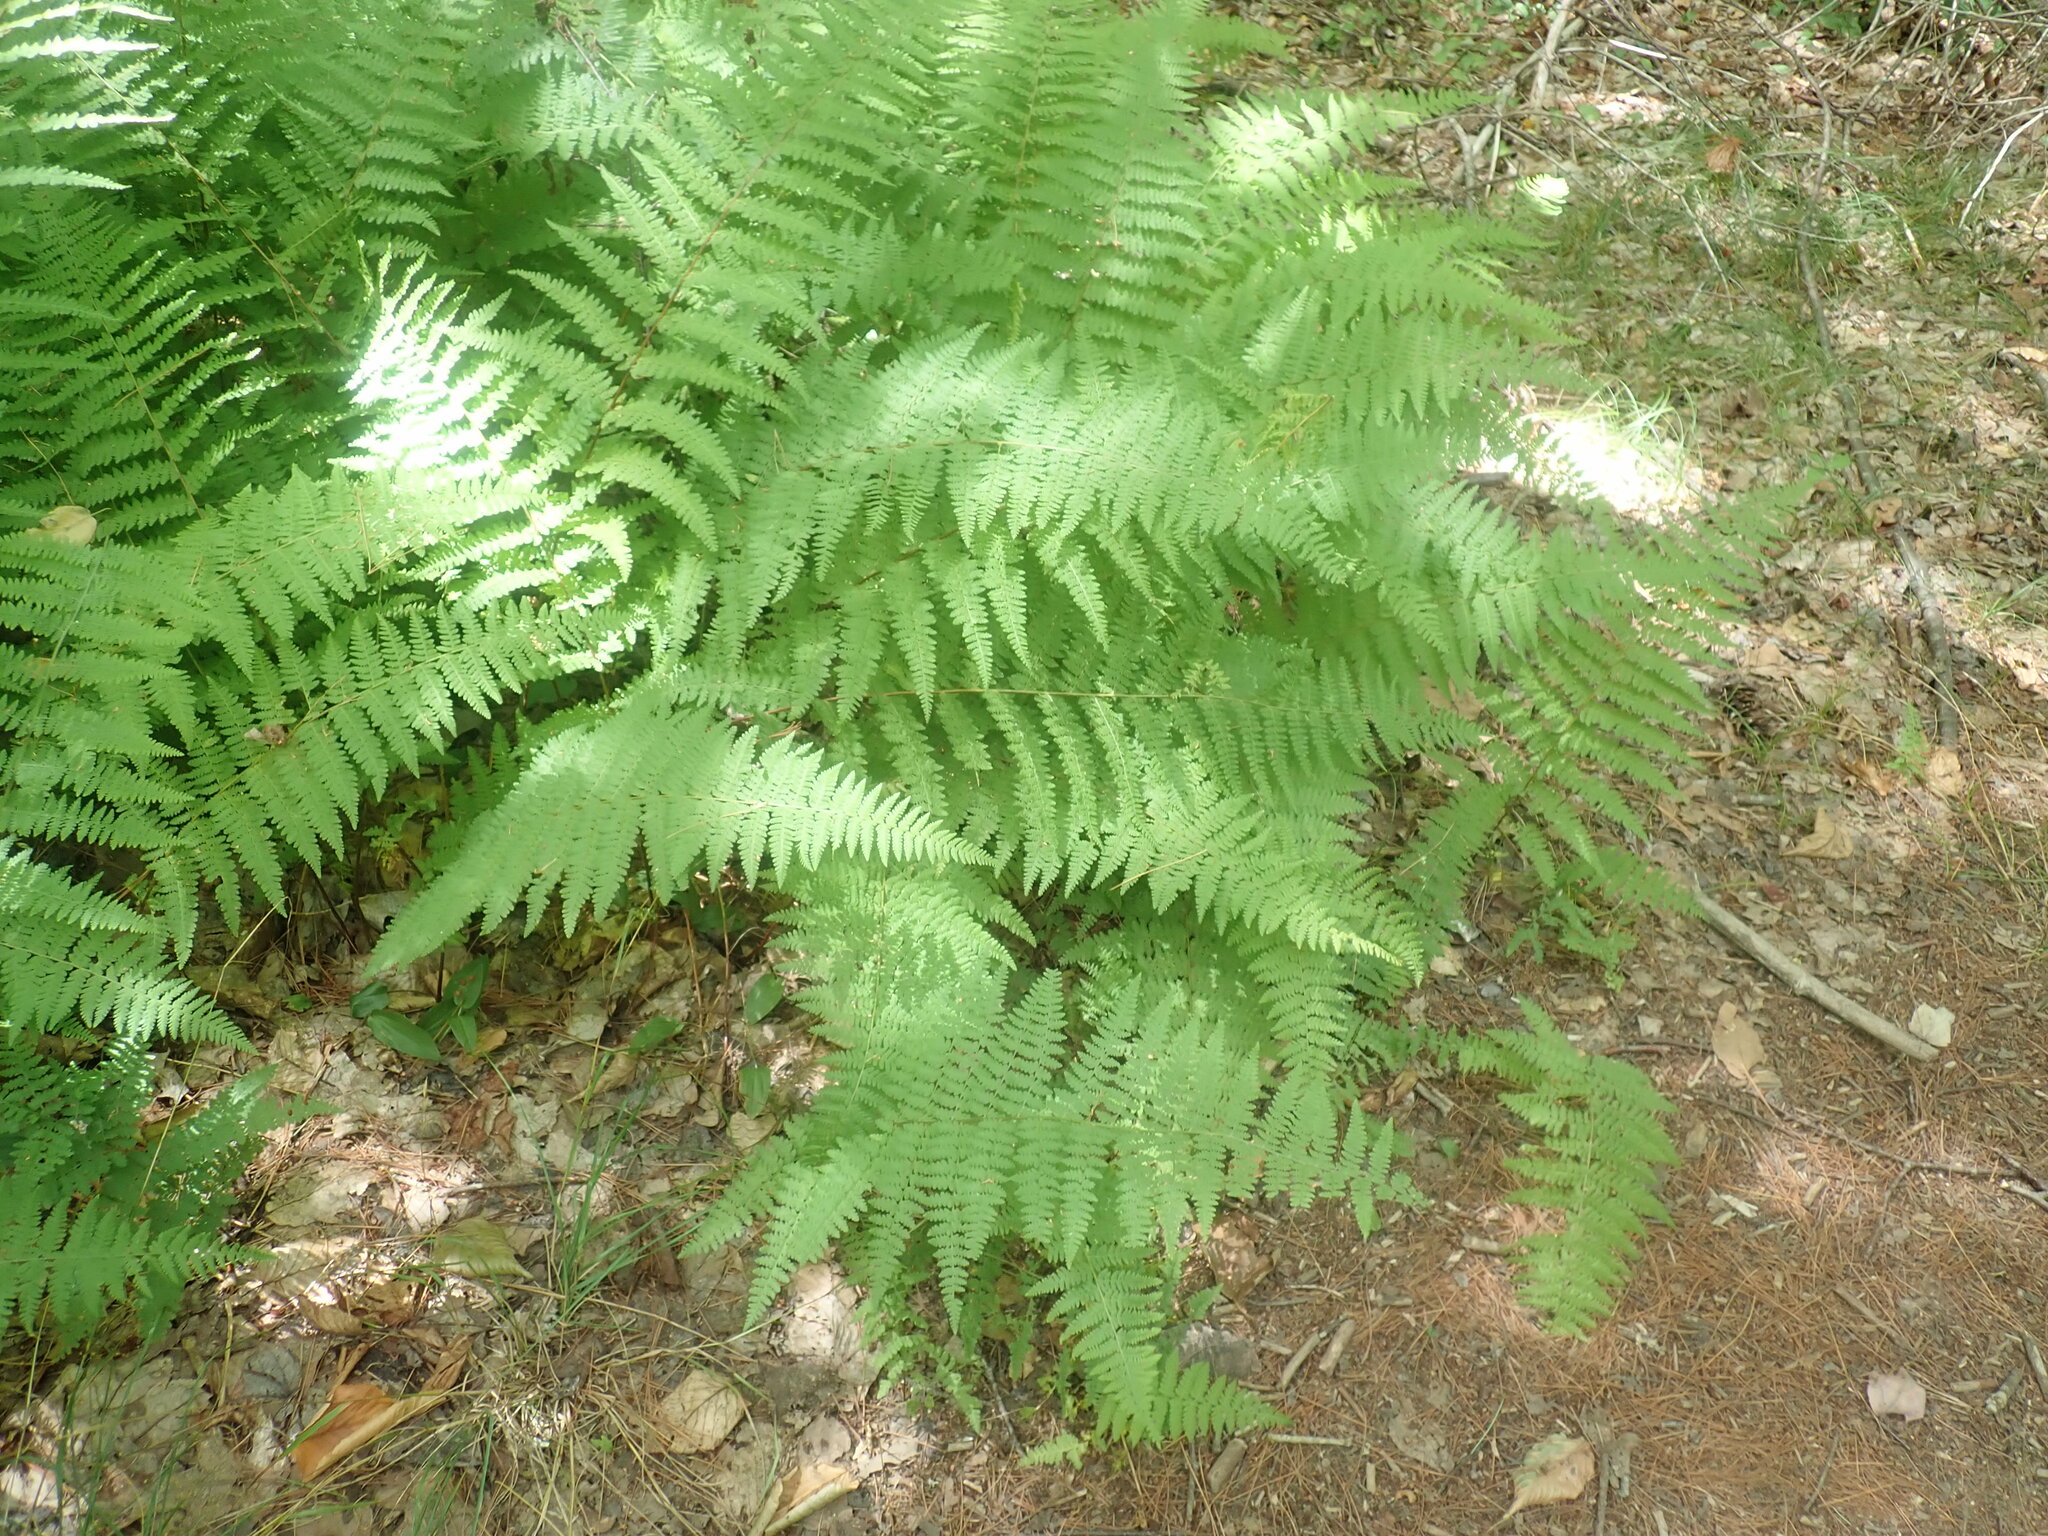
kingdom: Plantae
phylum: Tracheophyta
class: Polypodiopsida
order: Polypodiales
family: Dennstaedtiaceae
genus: Sitobolium
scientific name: Sitobolium punctilobum
